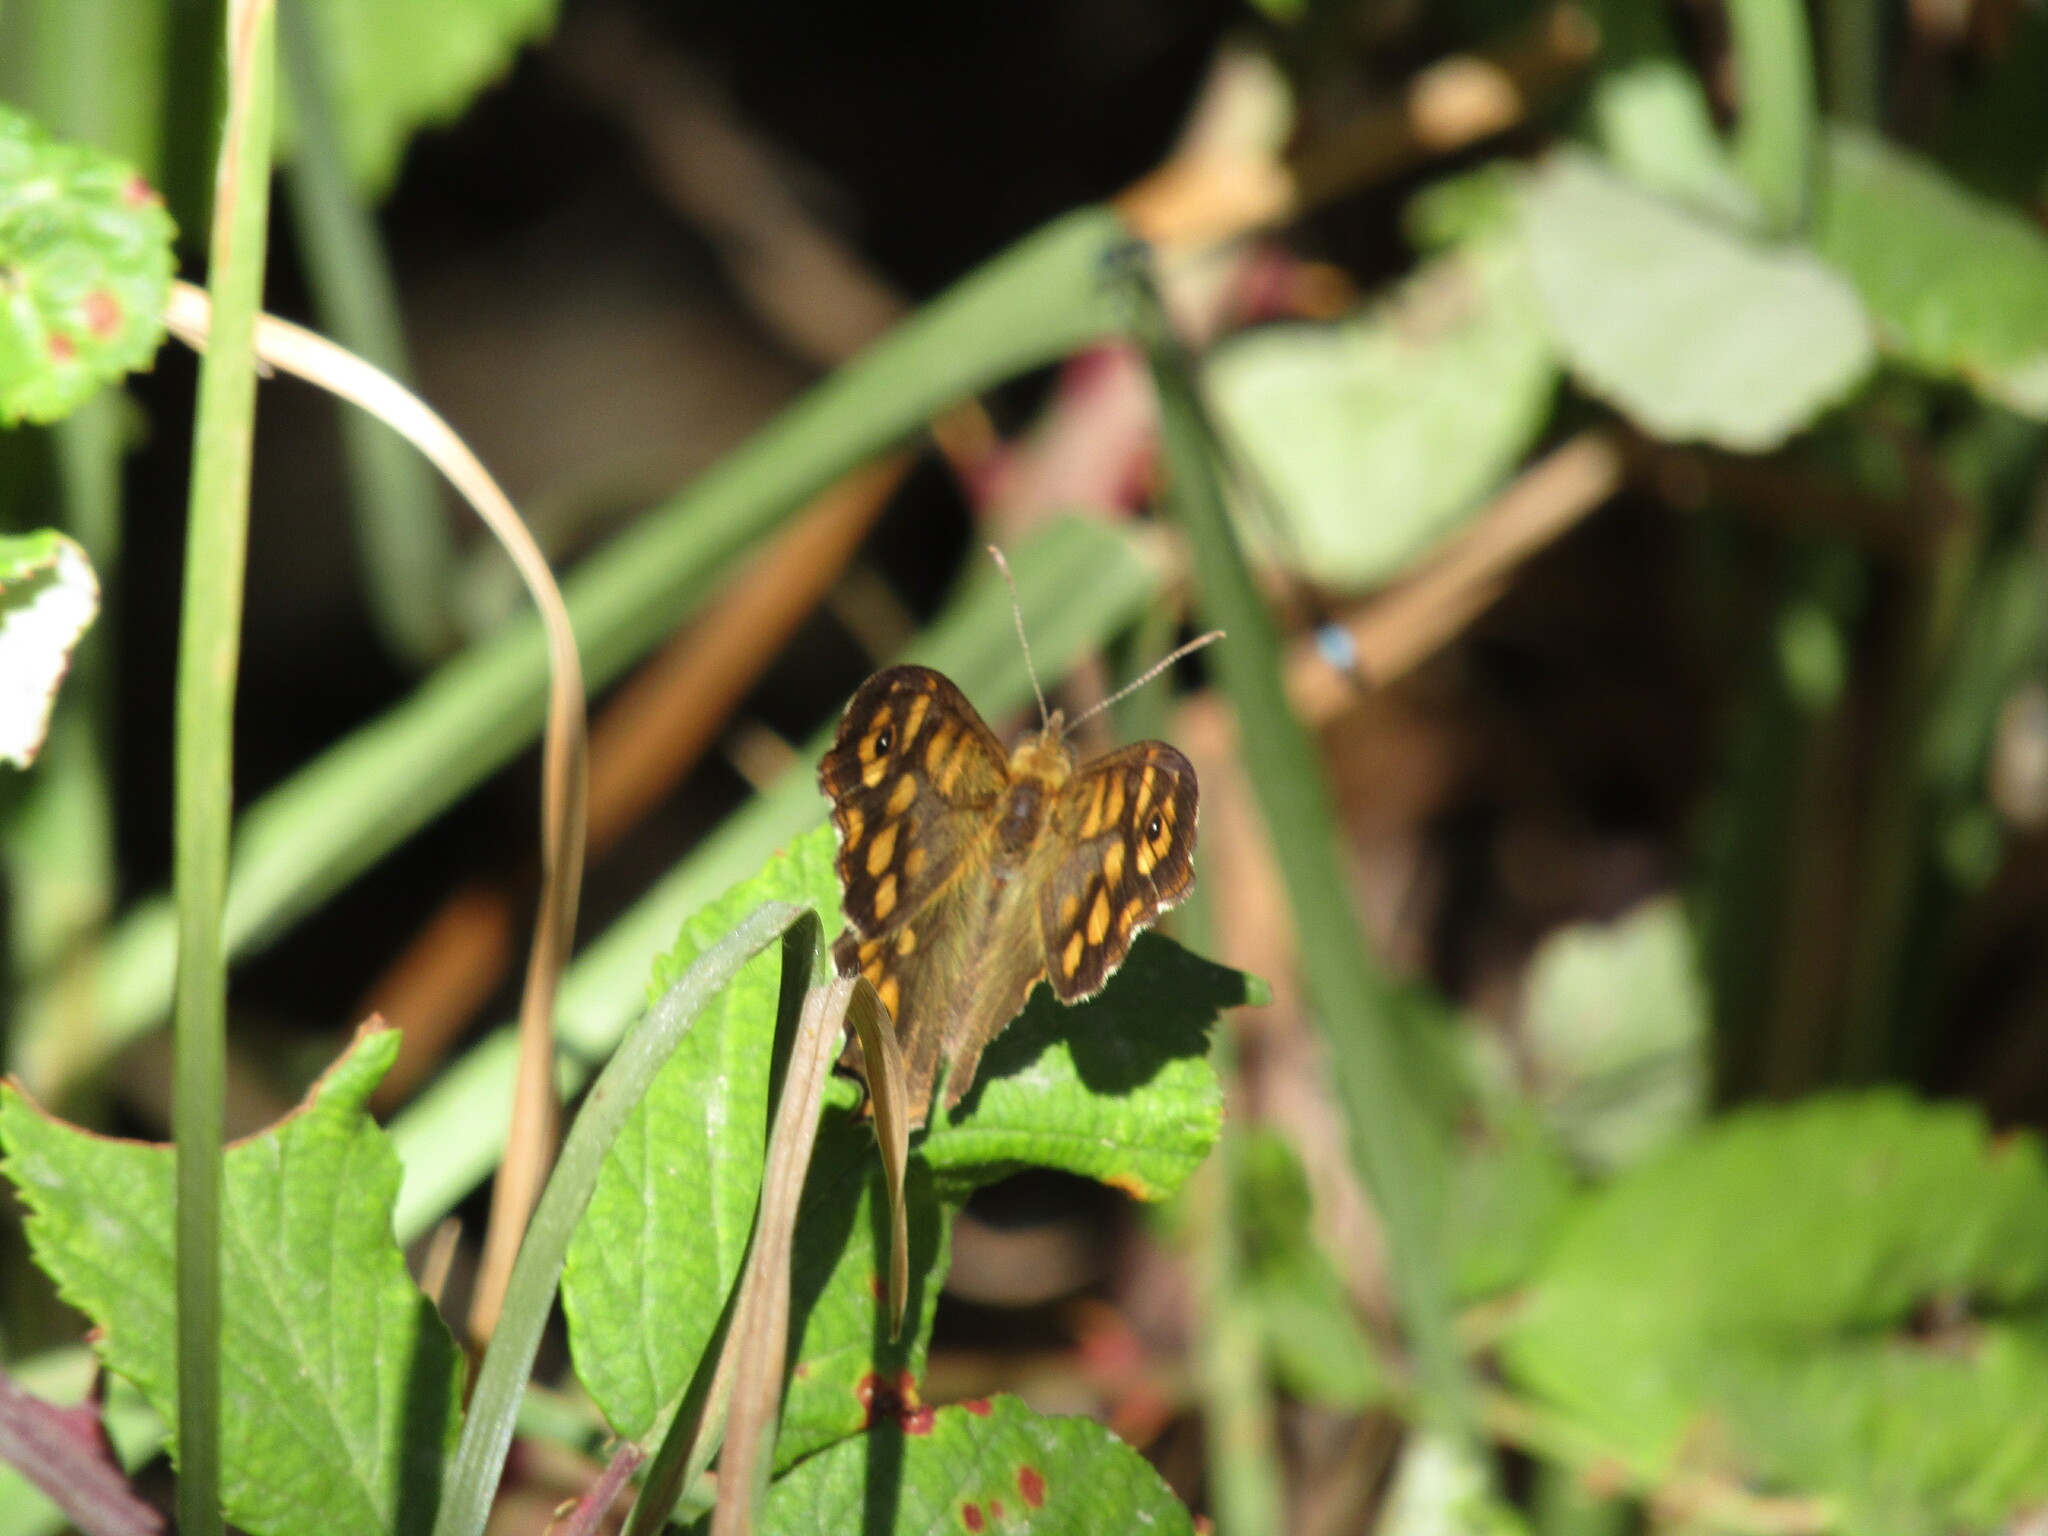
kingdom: Animalia
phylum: Arthropoda
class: Insecta
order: Lepidoptera
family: Nymphalidae
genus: Pararge
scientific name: Pararge aegeria
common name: Speckled wood
